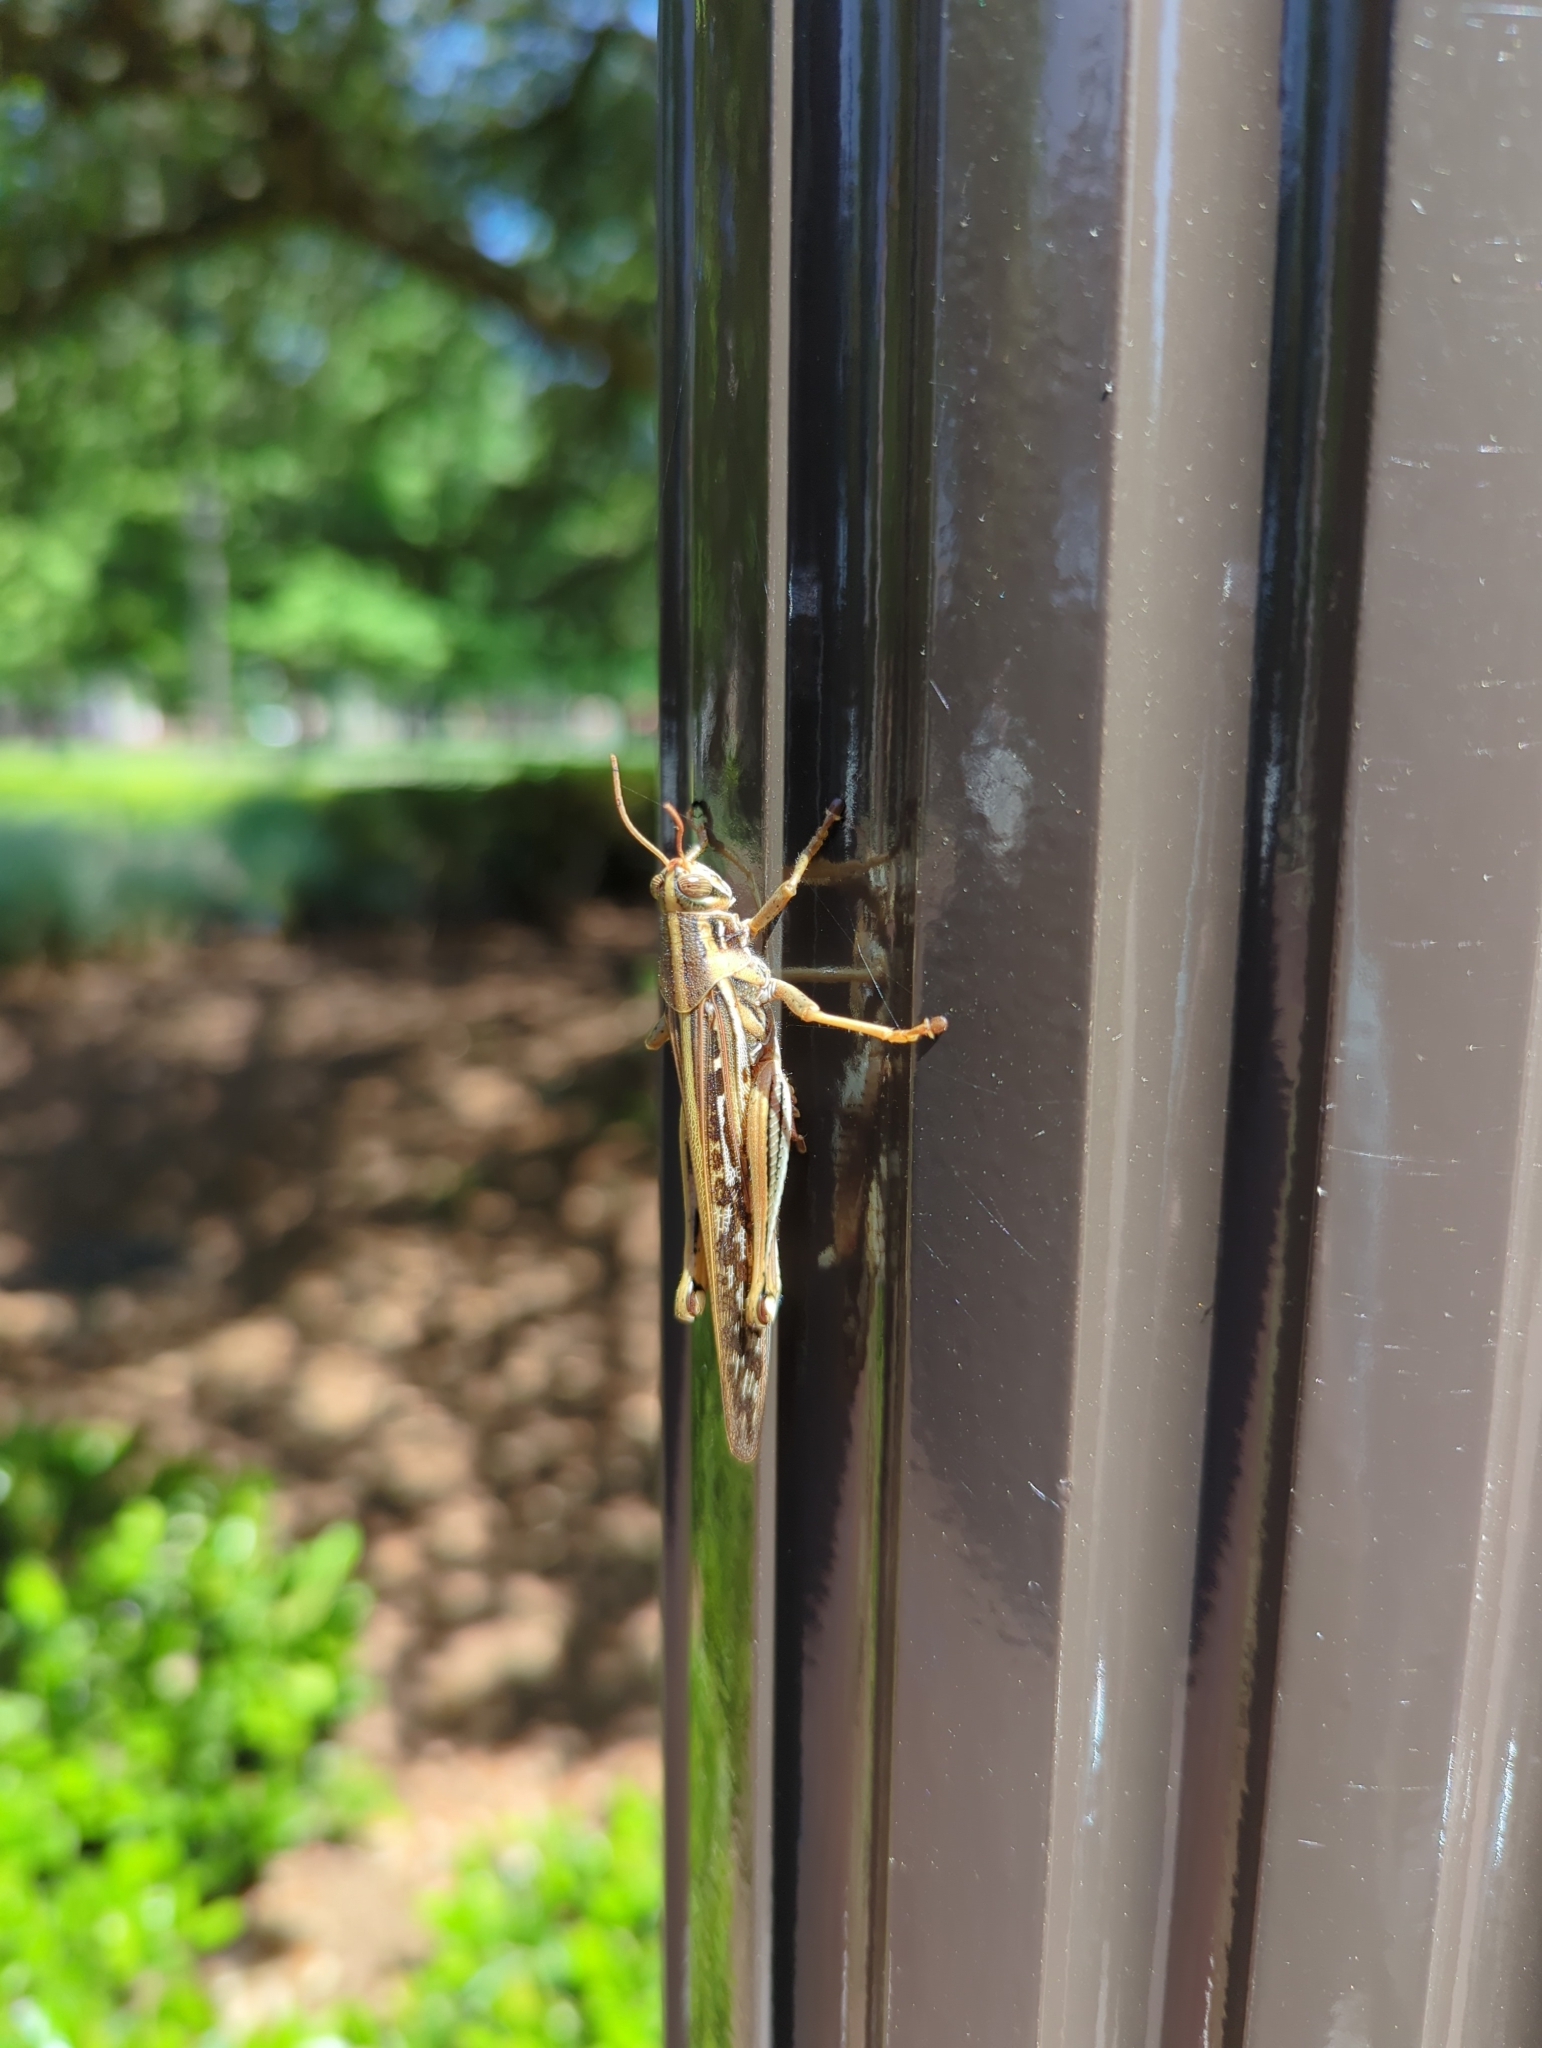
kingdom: Animalia
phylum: Arthropoda
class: Insecta
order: Orthoptera
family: Acrididae
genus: Schistocerca
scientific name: Schistocerca americana
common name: American bird locust
